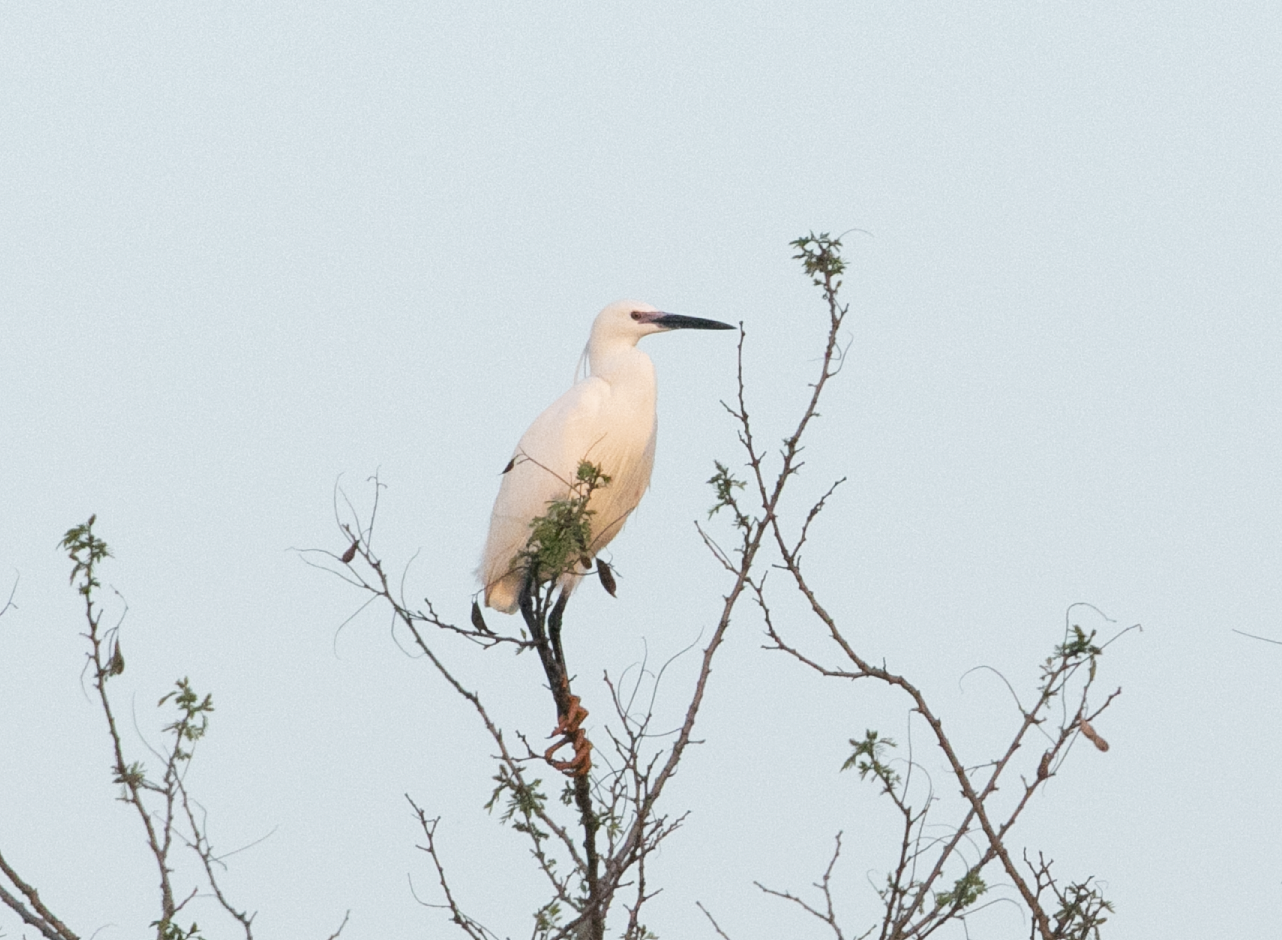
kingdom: Animalia
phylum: Chordata
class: Aves
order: Pelecaniformes
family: Ardeidae
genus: Egretta
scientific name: Egretta garzetta
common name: Little egret
